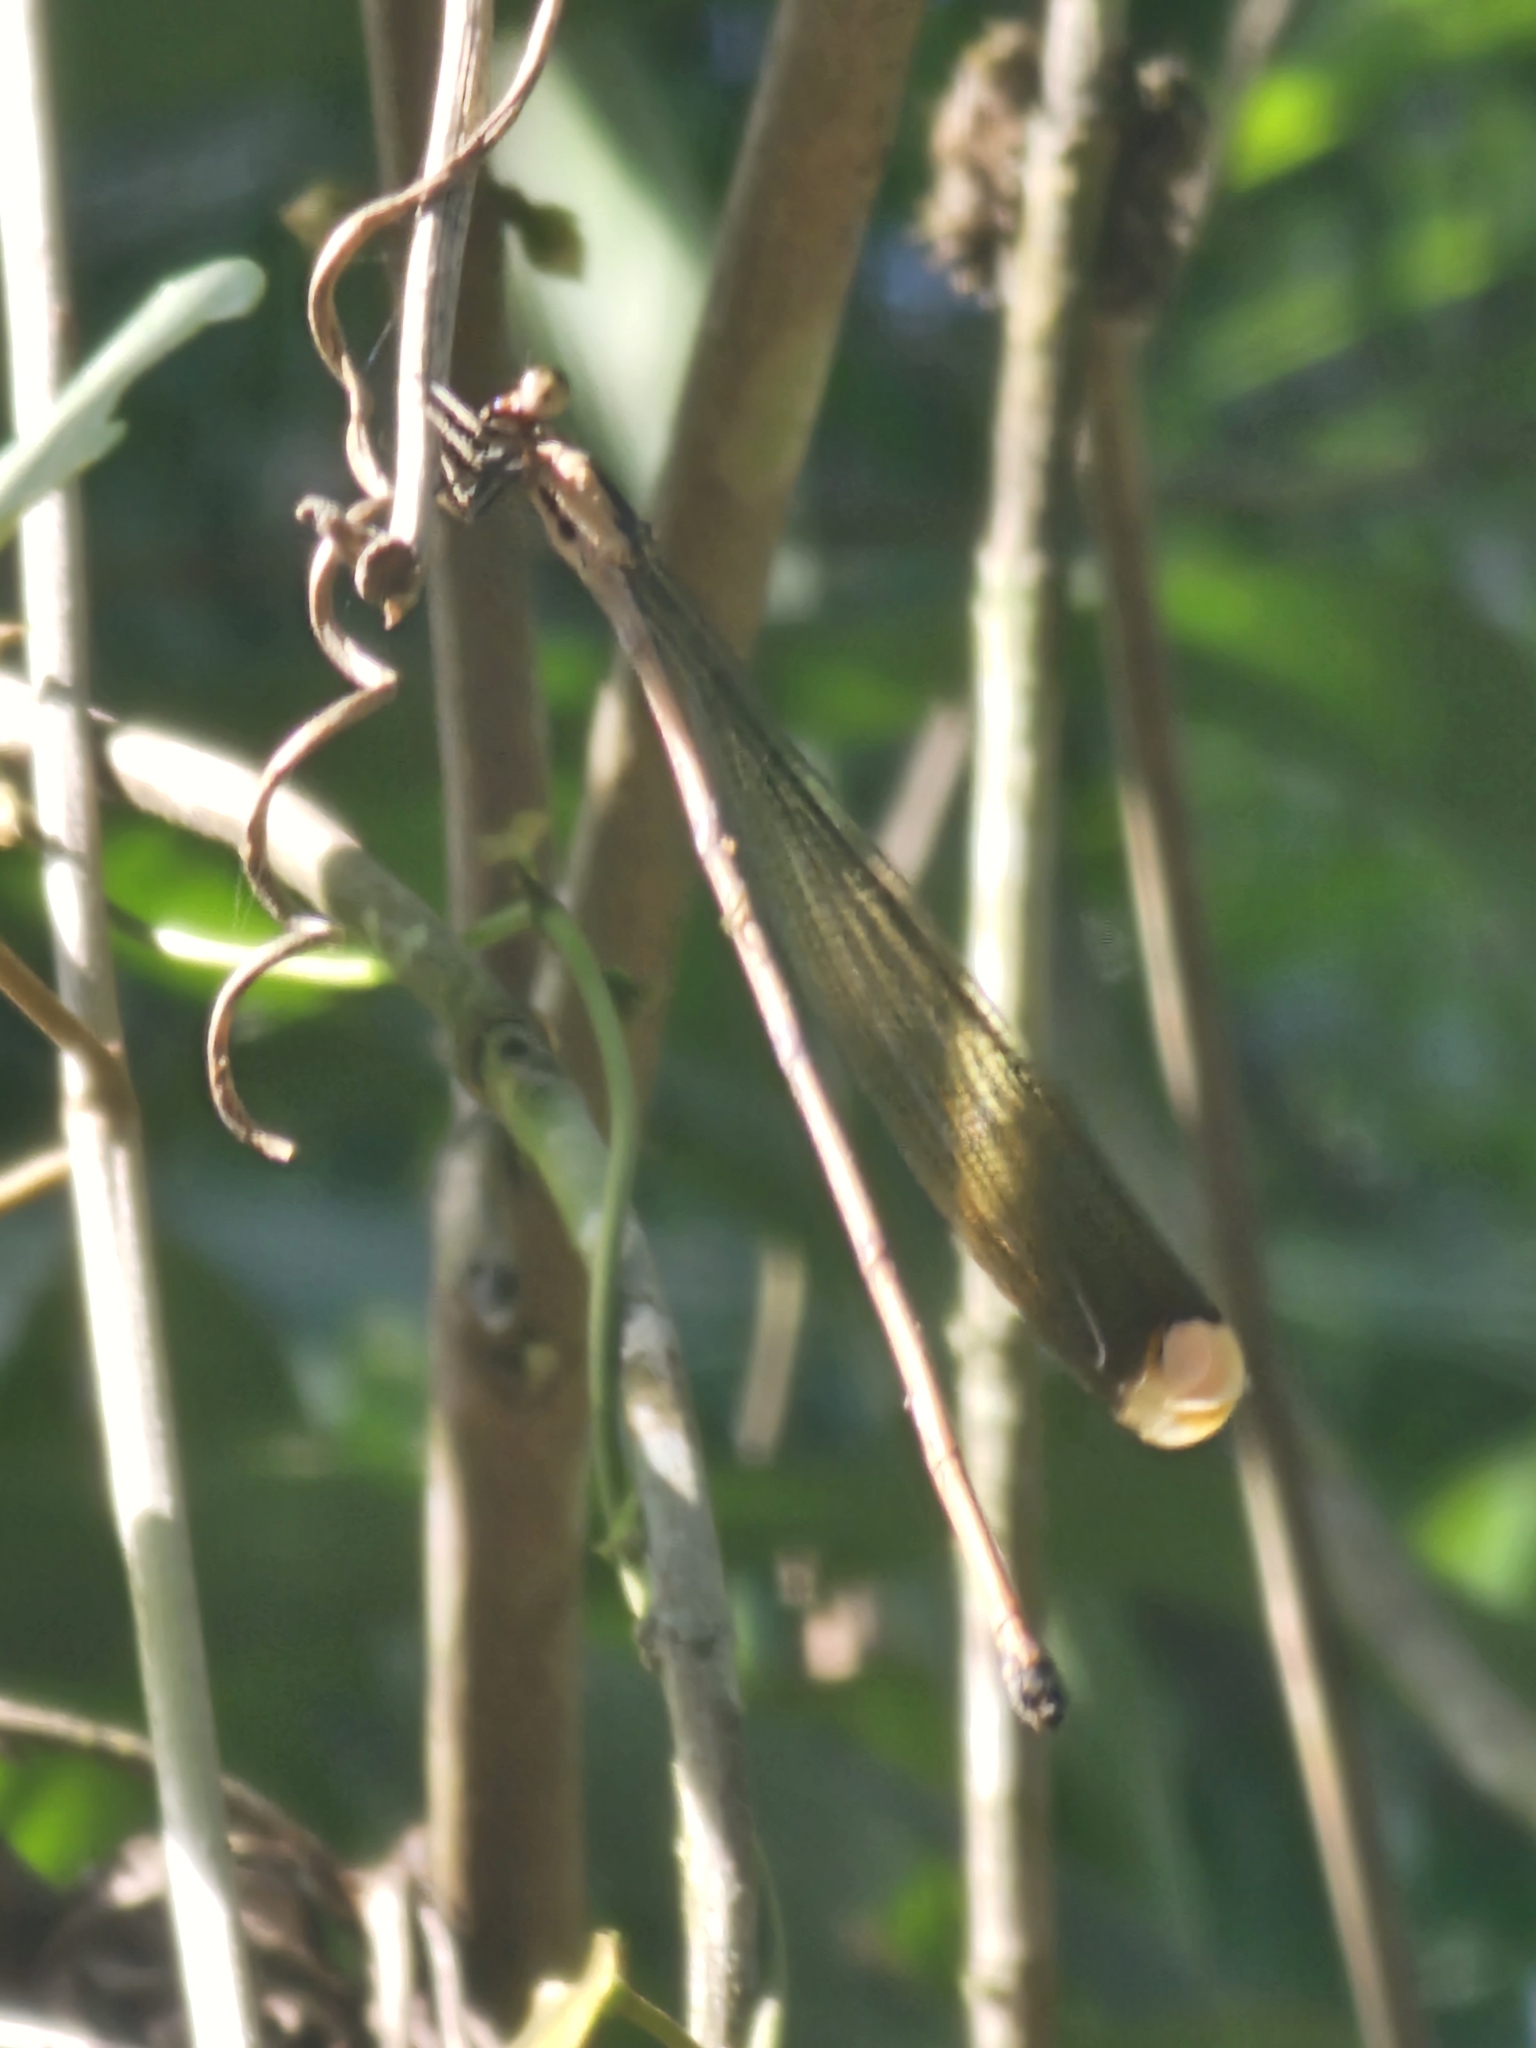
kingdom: Animalia
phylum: Arthropoda
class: Insecta
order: Odonata
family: Coenagrionidae
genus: Mecistogaster
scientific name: Mecistogaster ornata
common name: Ornate helicopter
